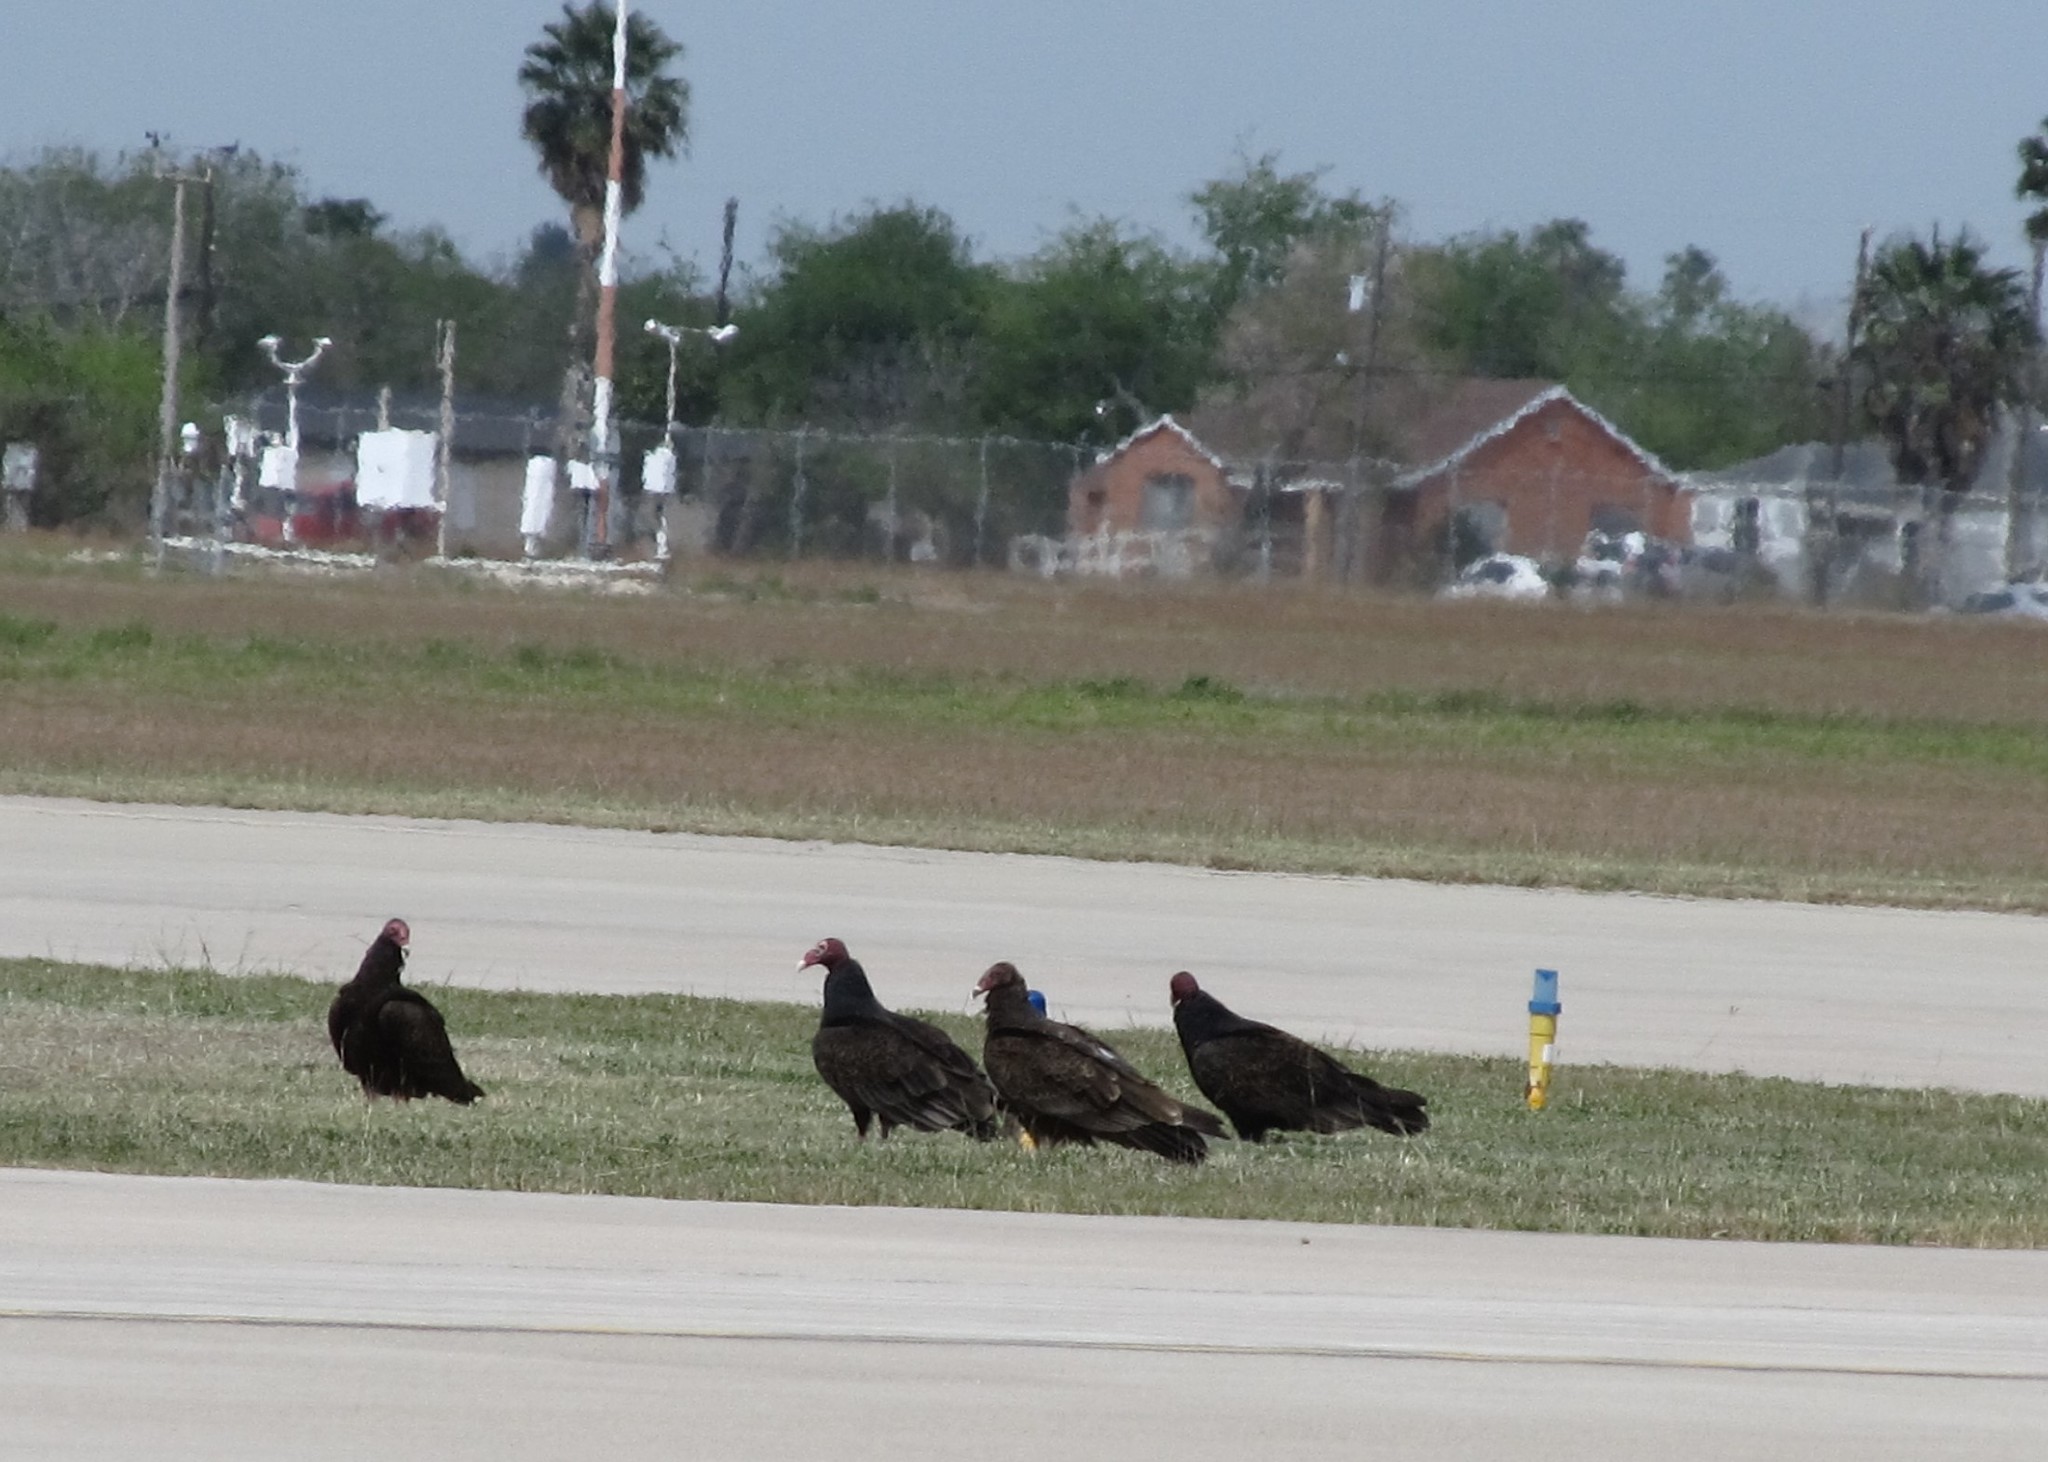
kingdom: Animalia
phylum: Chordata
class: Aves
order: Accipitriformes
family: Cathartidae
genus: Cathartes
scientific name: Cathartes aura
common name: Turkey vulture
